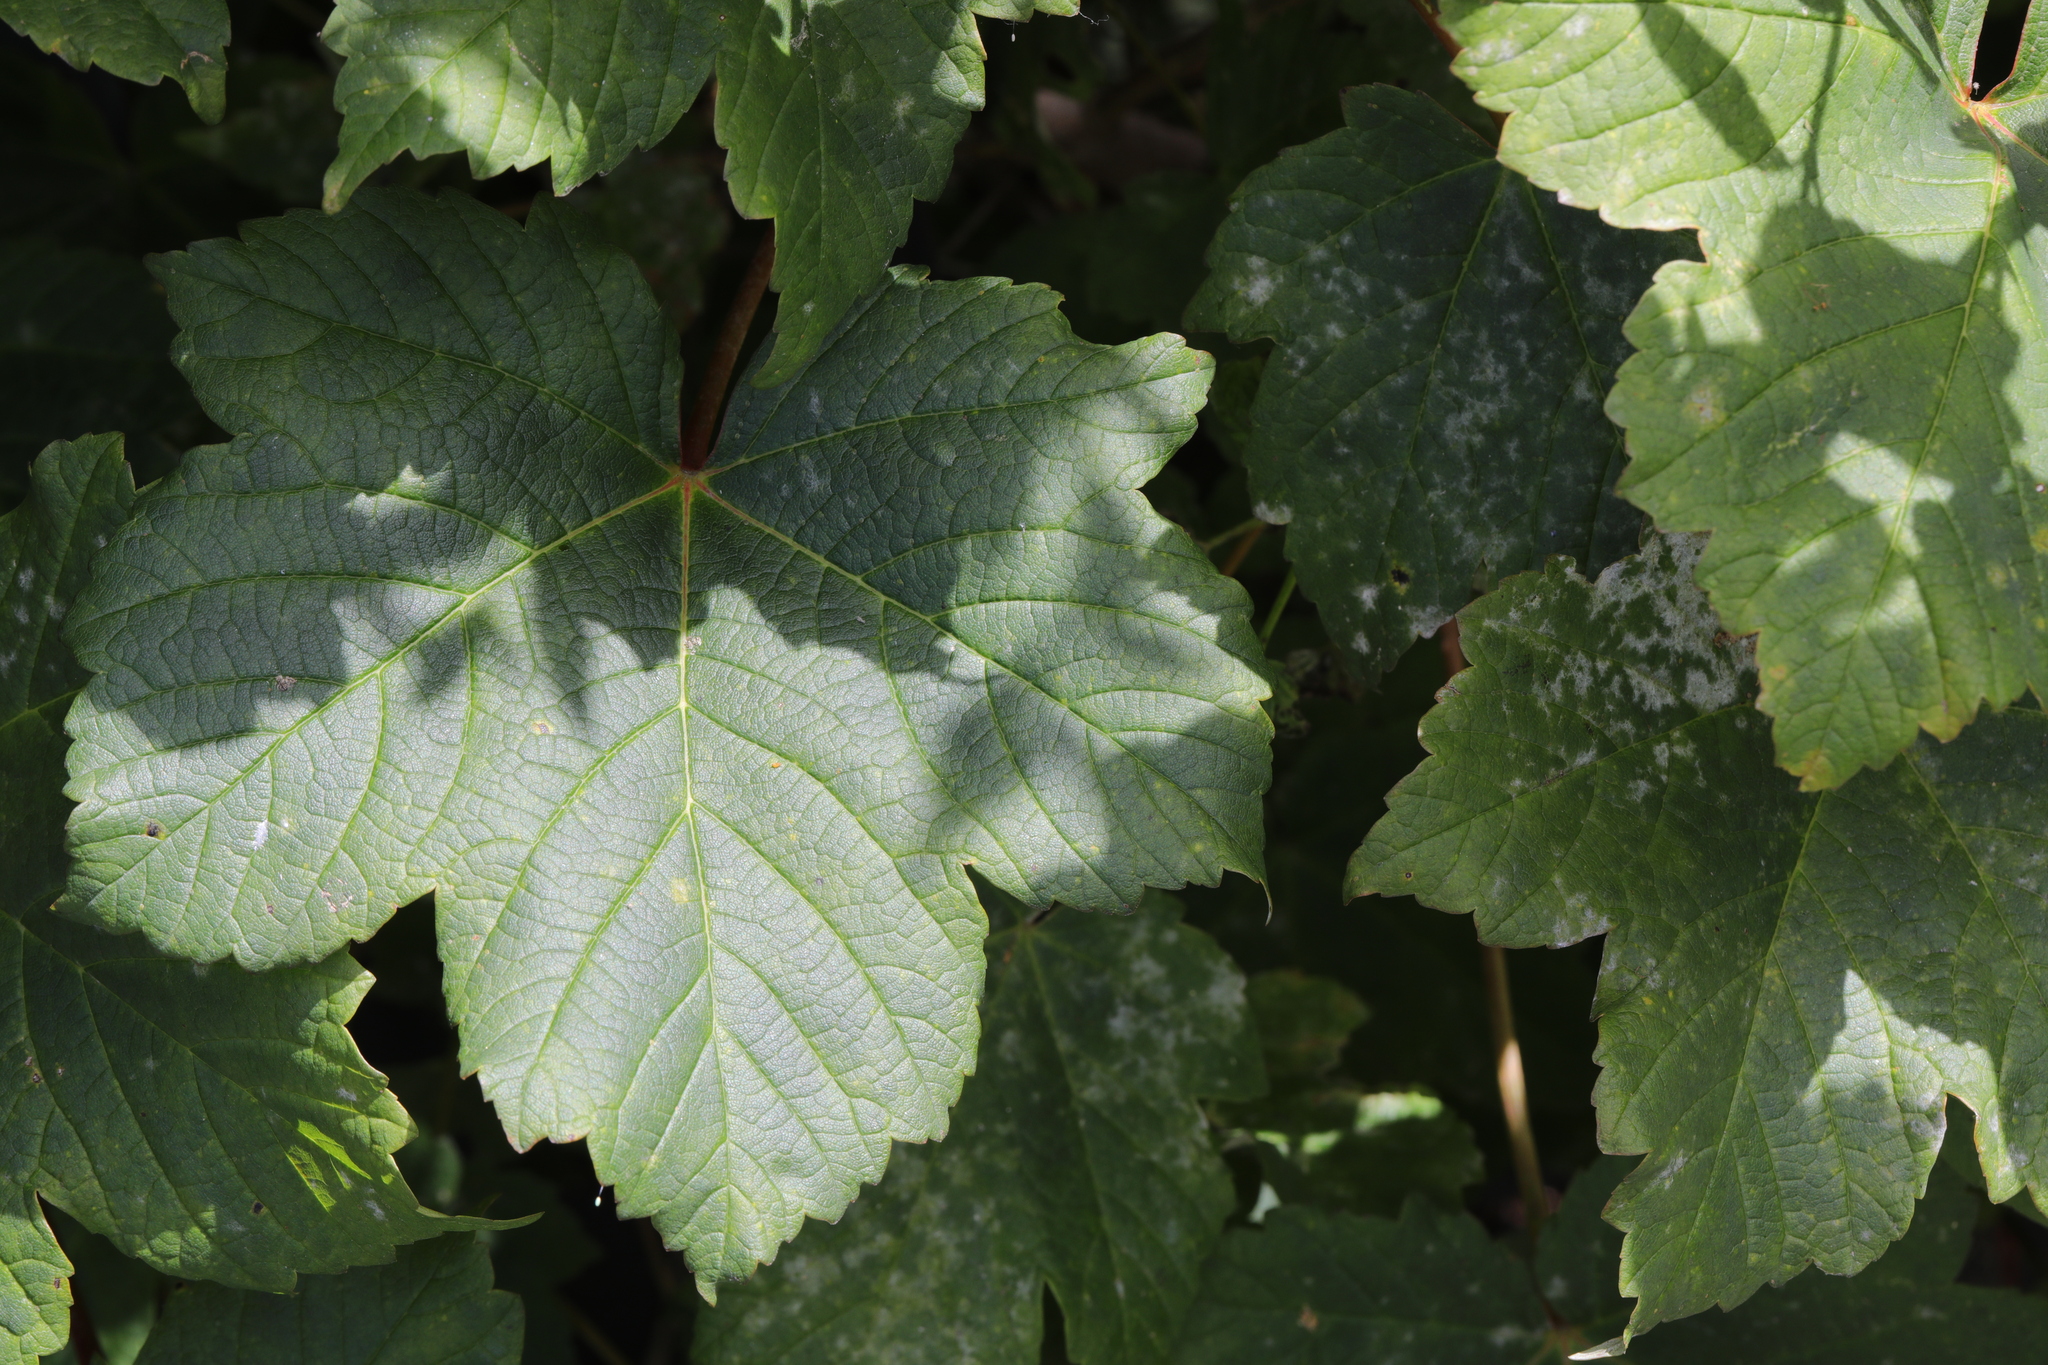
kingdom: Plantae
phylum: Tracheophyta
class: Magnoliopsida
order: Sapindales
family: Sapindaceae
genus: Acer
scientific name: Acer pseudoplatanus
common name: Sycamore
